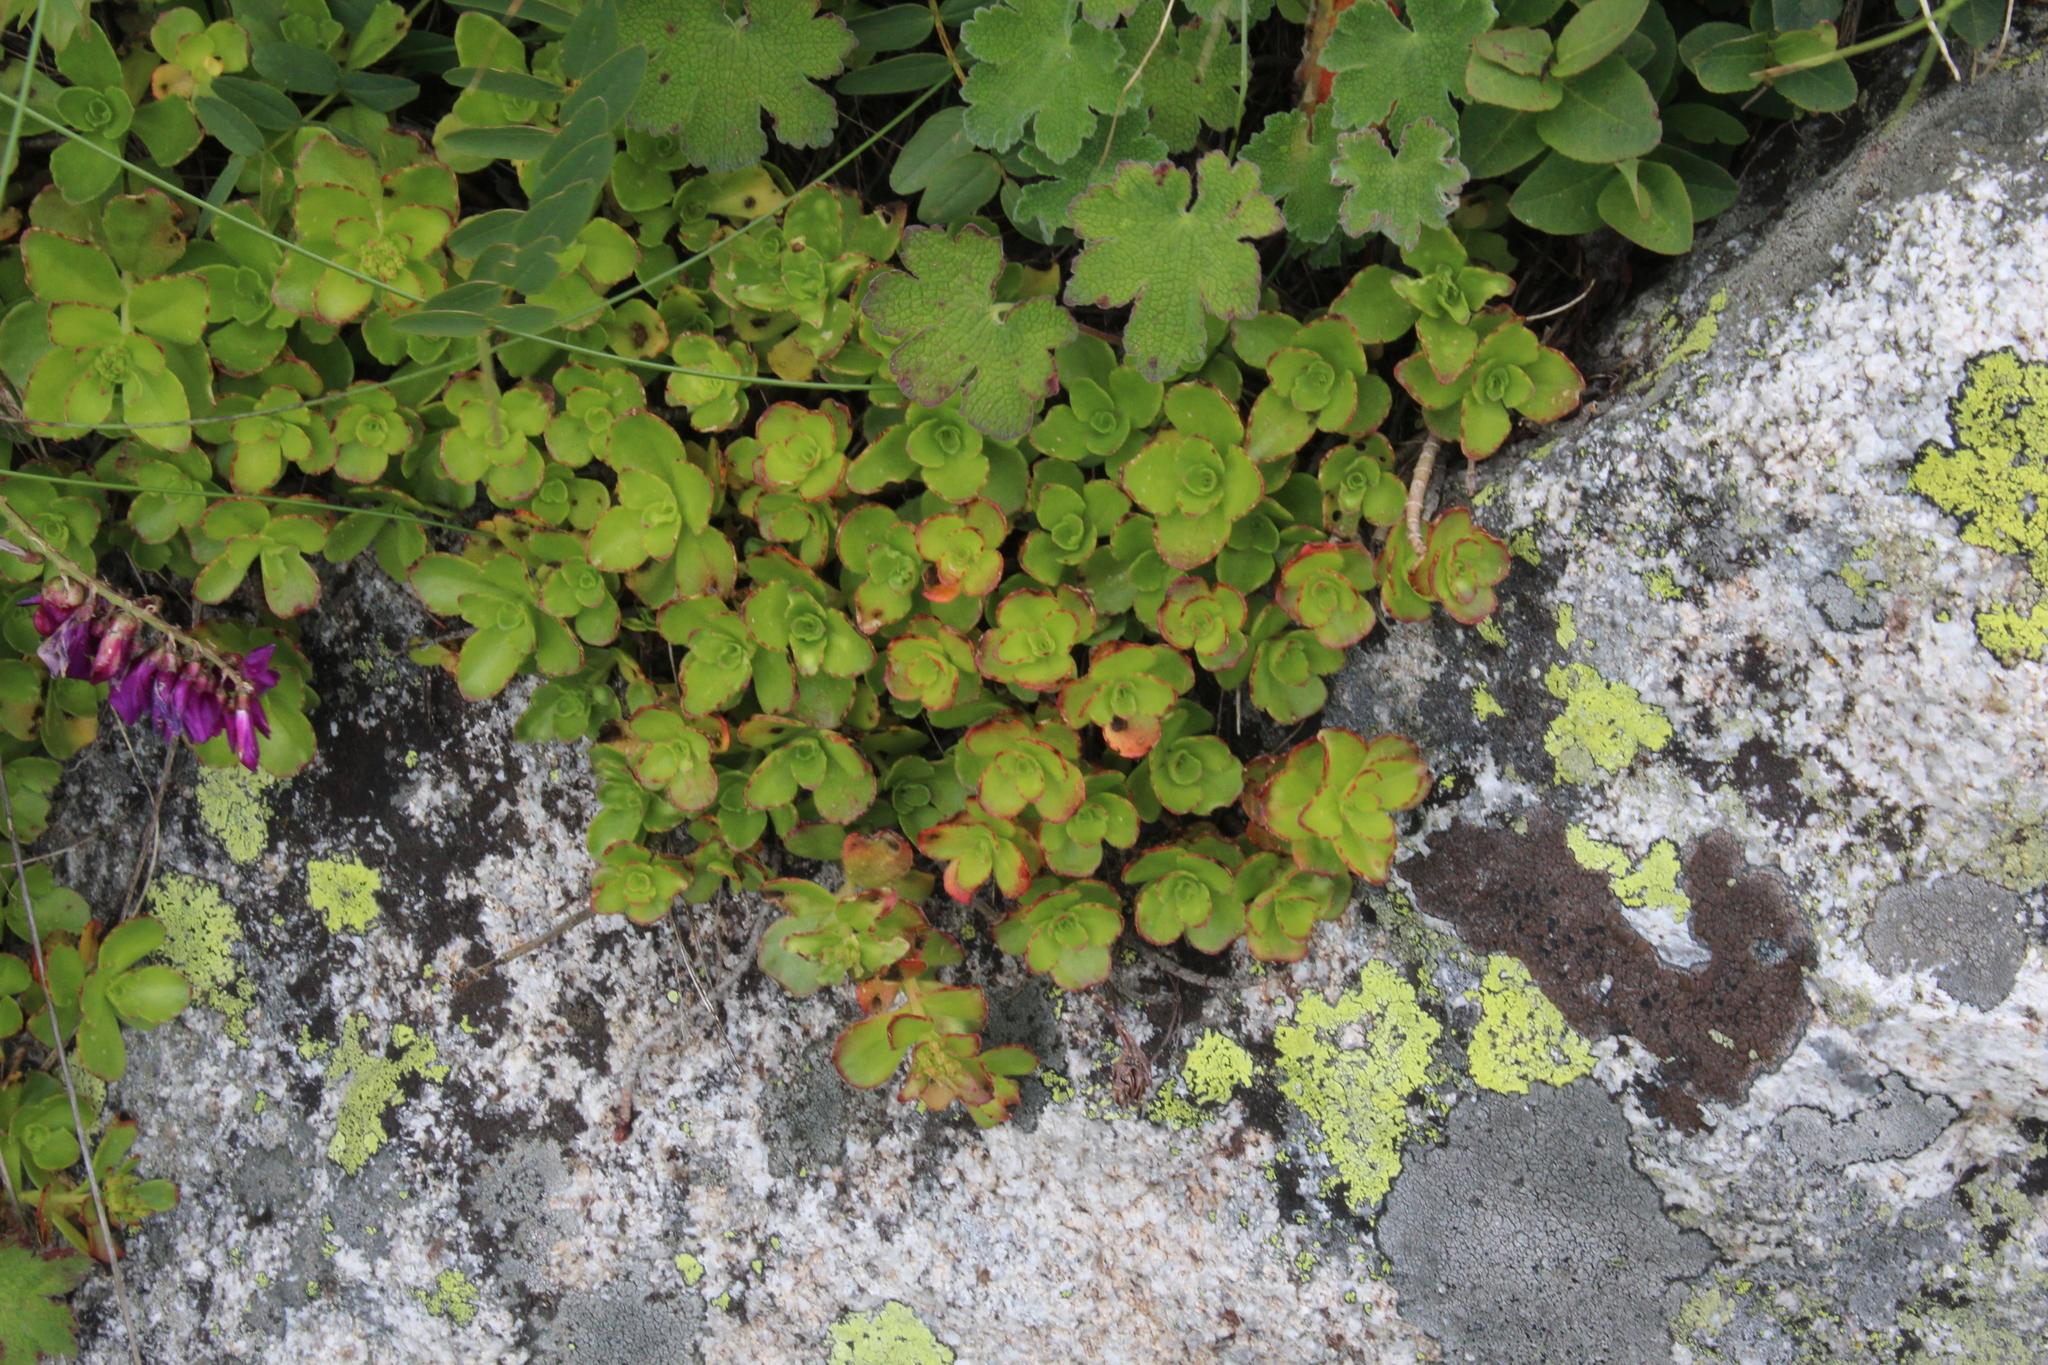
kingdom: Plantae
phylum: Tracheophyta
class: Magnoliopsida
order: Saxifragales
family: Crassulaceae
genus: Phedimus
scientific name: Phedimus spurius
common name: Caucasian stonecrop
